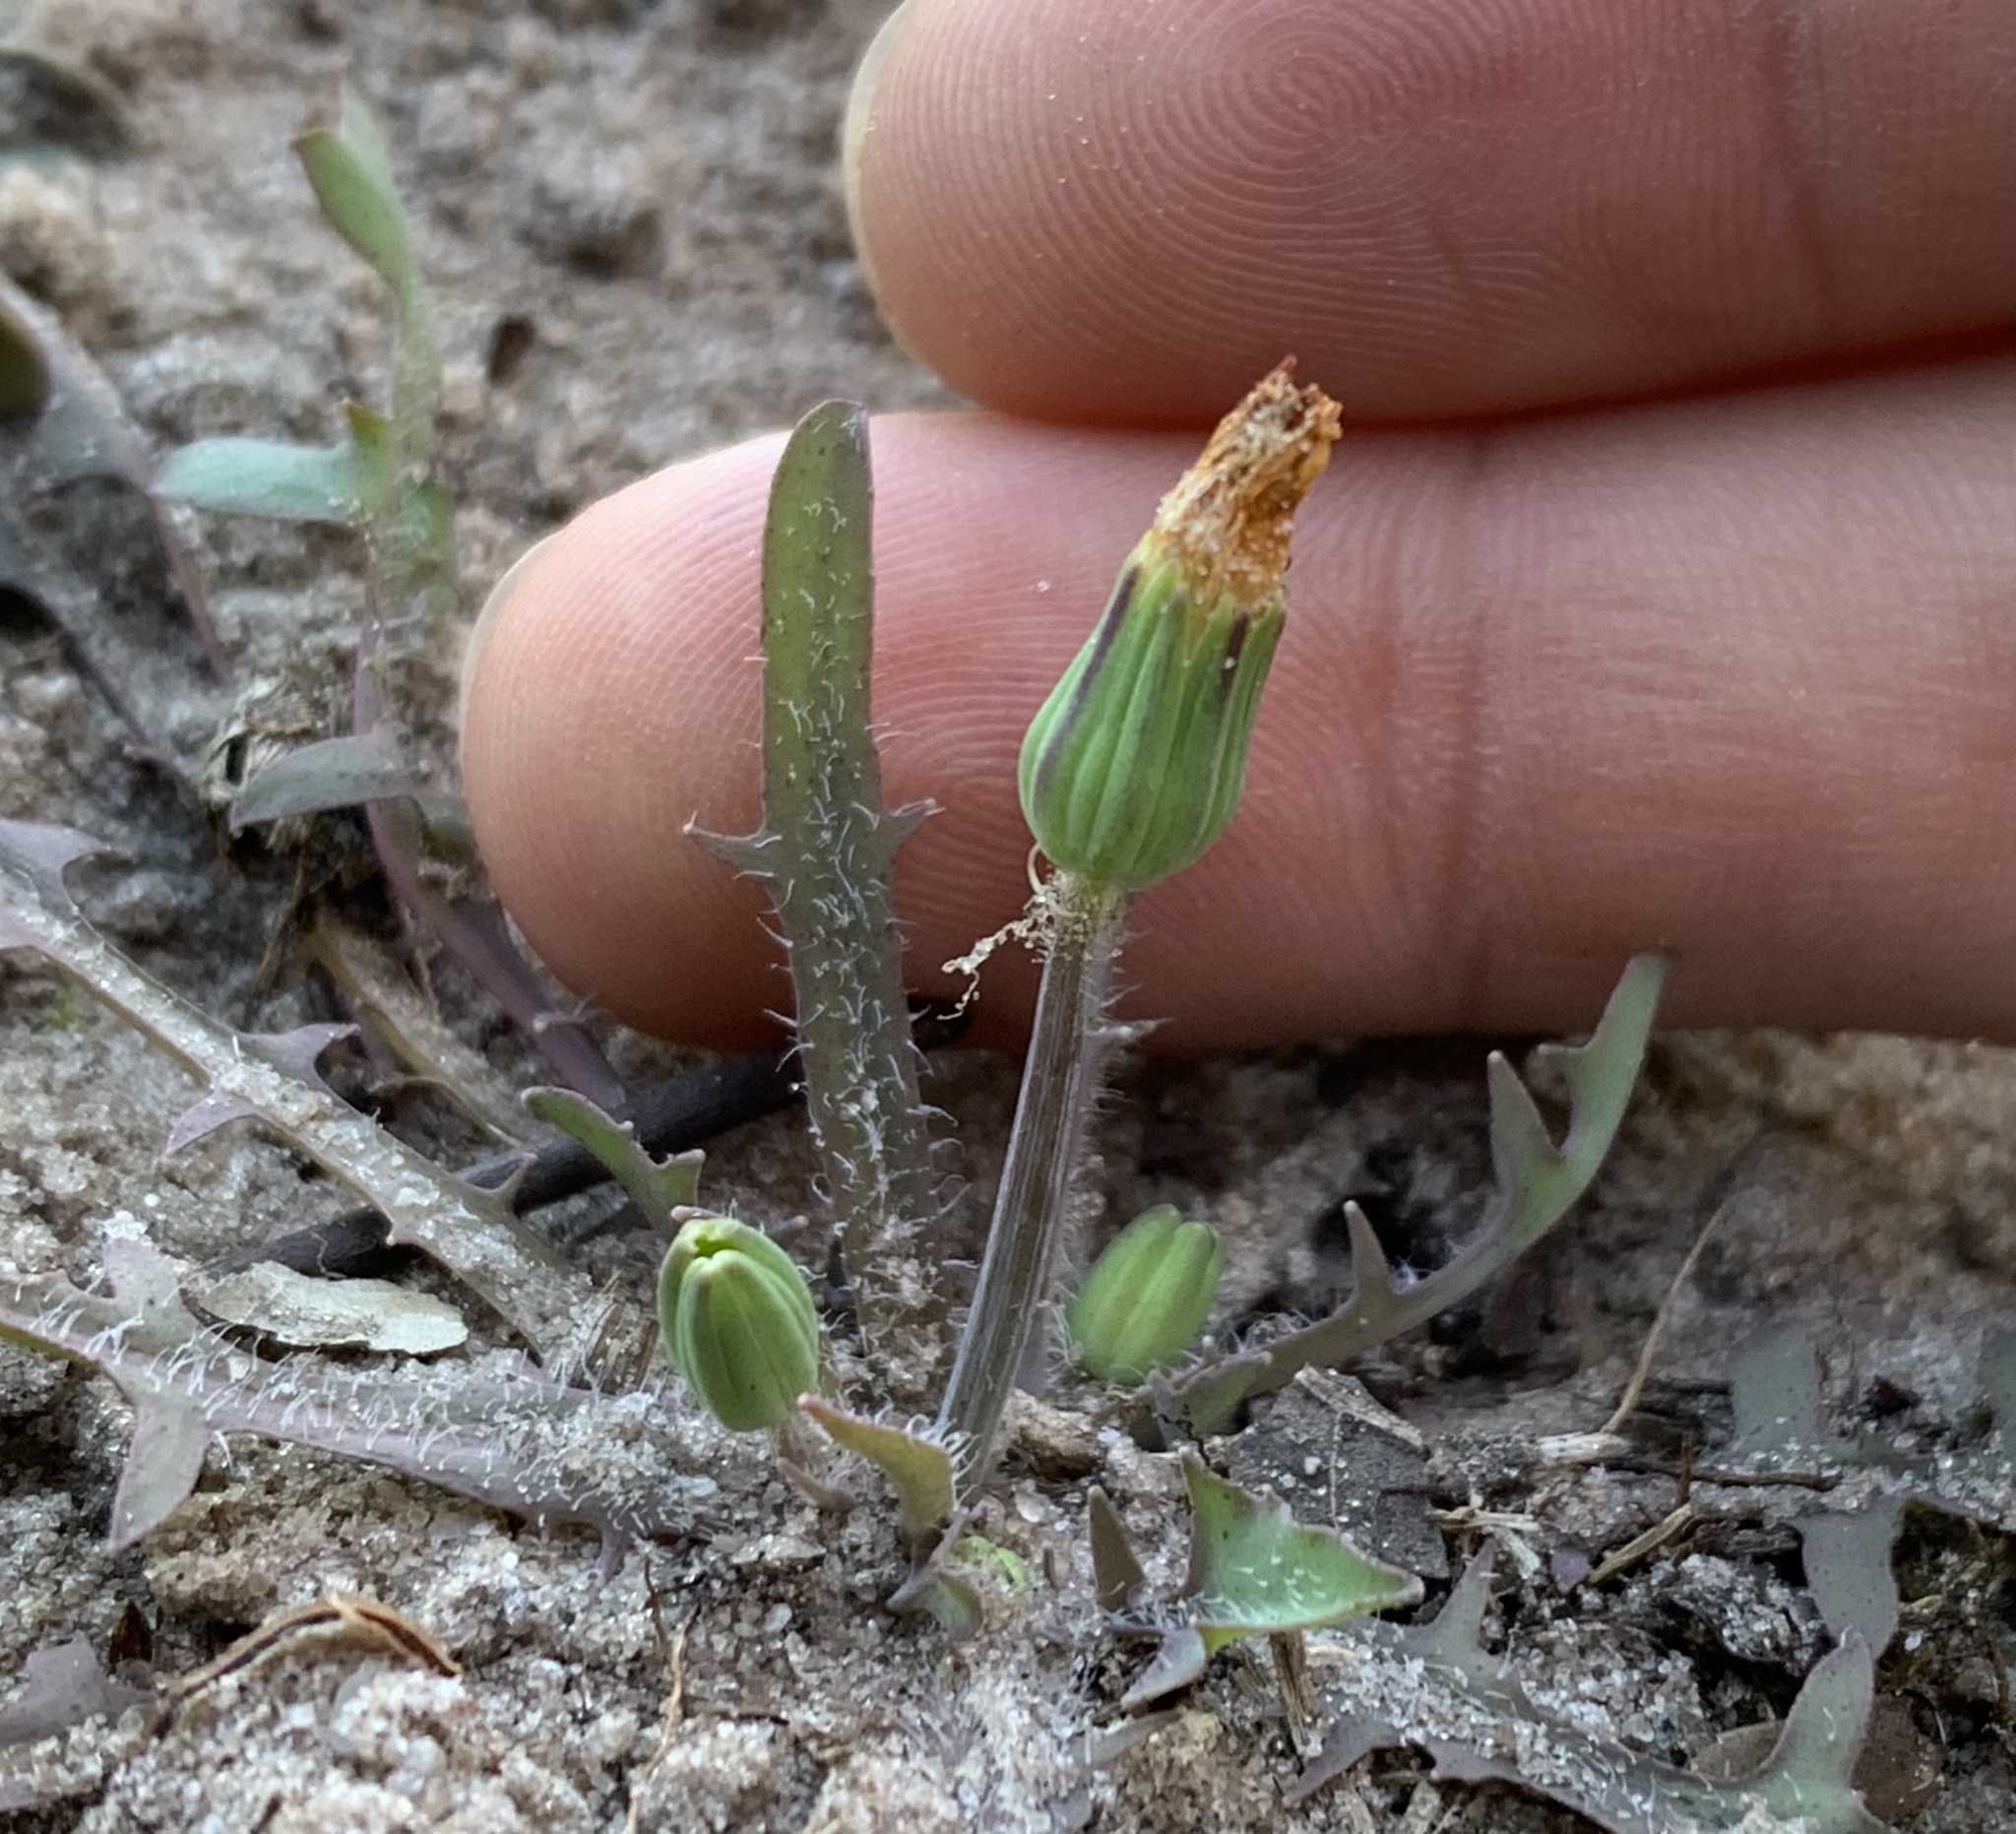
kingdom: Plantae
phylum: Tracheophyta
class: Magnoliopsida
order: Asterales
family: Asteraceae
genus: Krigia
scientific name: Krigia virginica
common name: Virginia dwarf-dandelion
